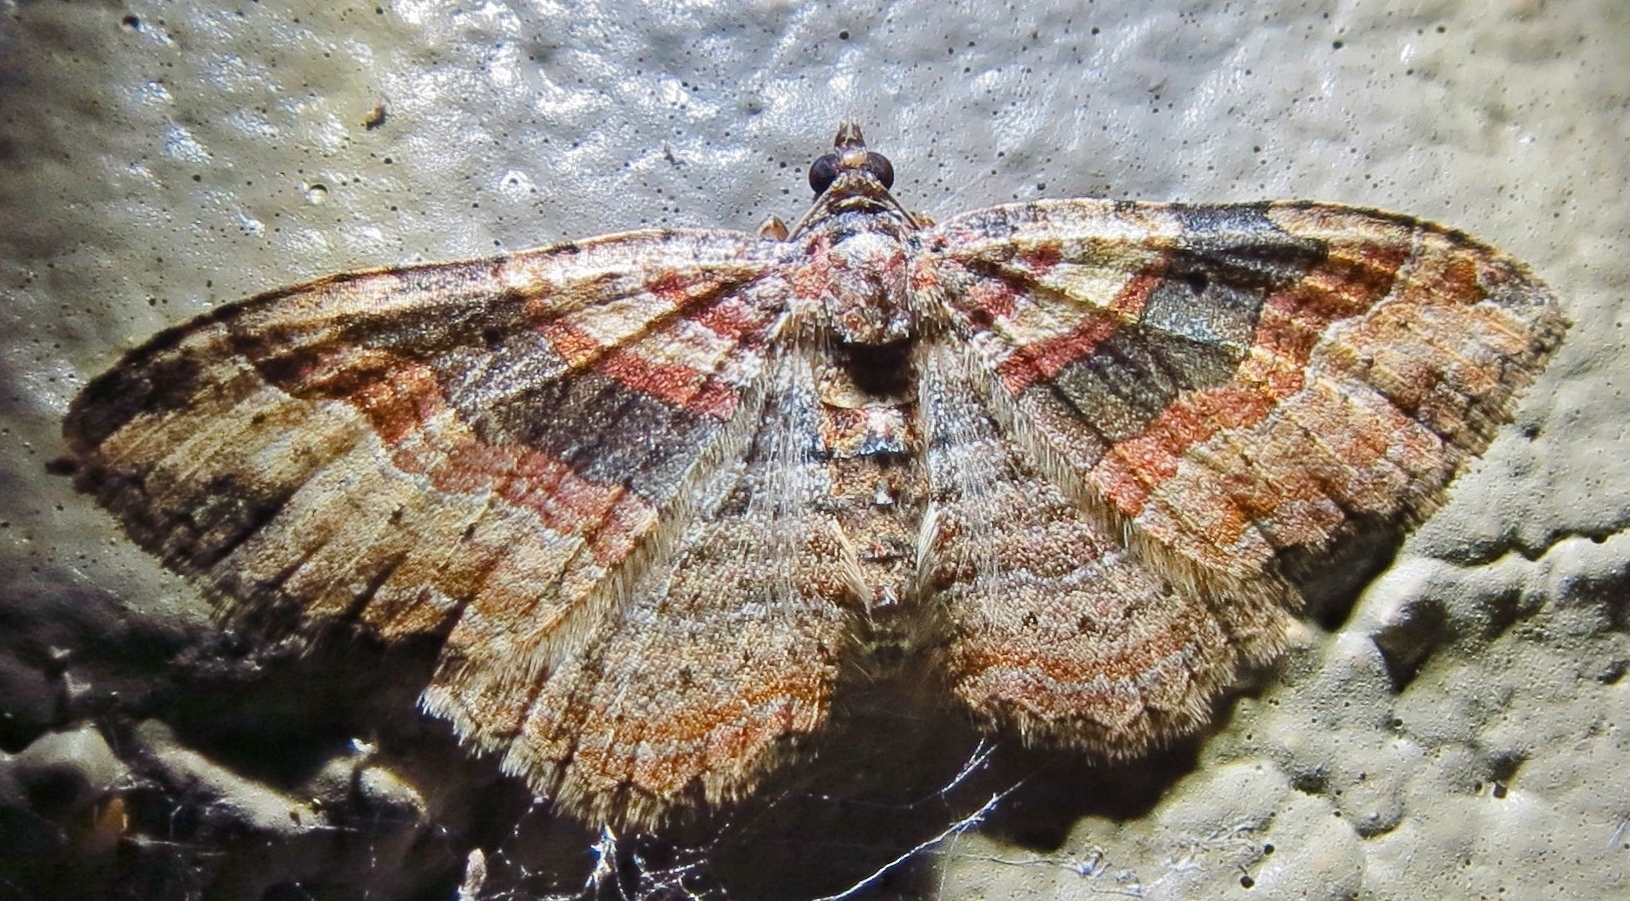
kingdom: Animalia
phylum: Arthropoda
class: Insecta
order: Lepidoptera
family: Geometridae
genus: Costaconvexa
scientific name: Costaconvexa centrostrigaria
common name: Bent-line carpet
